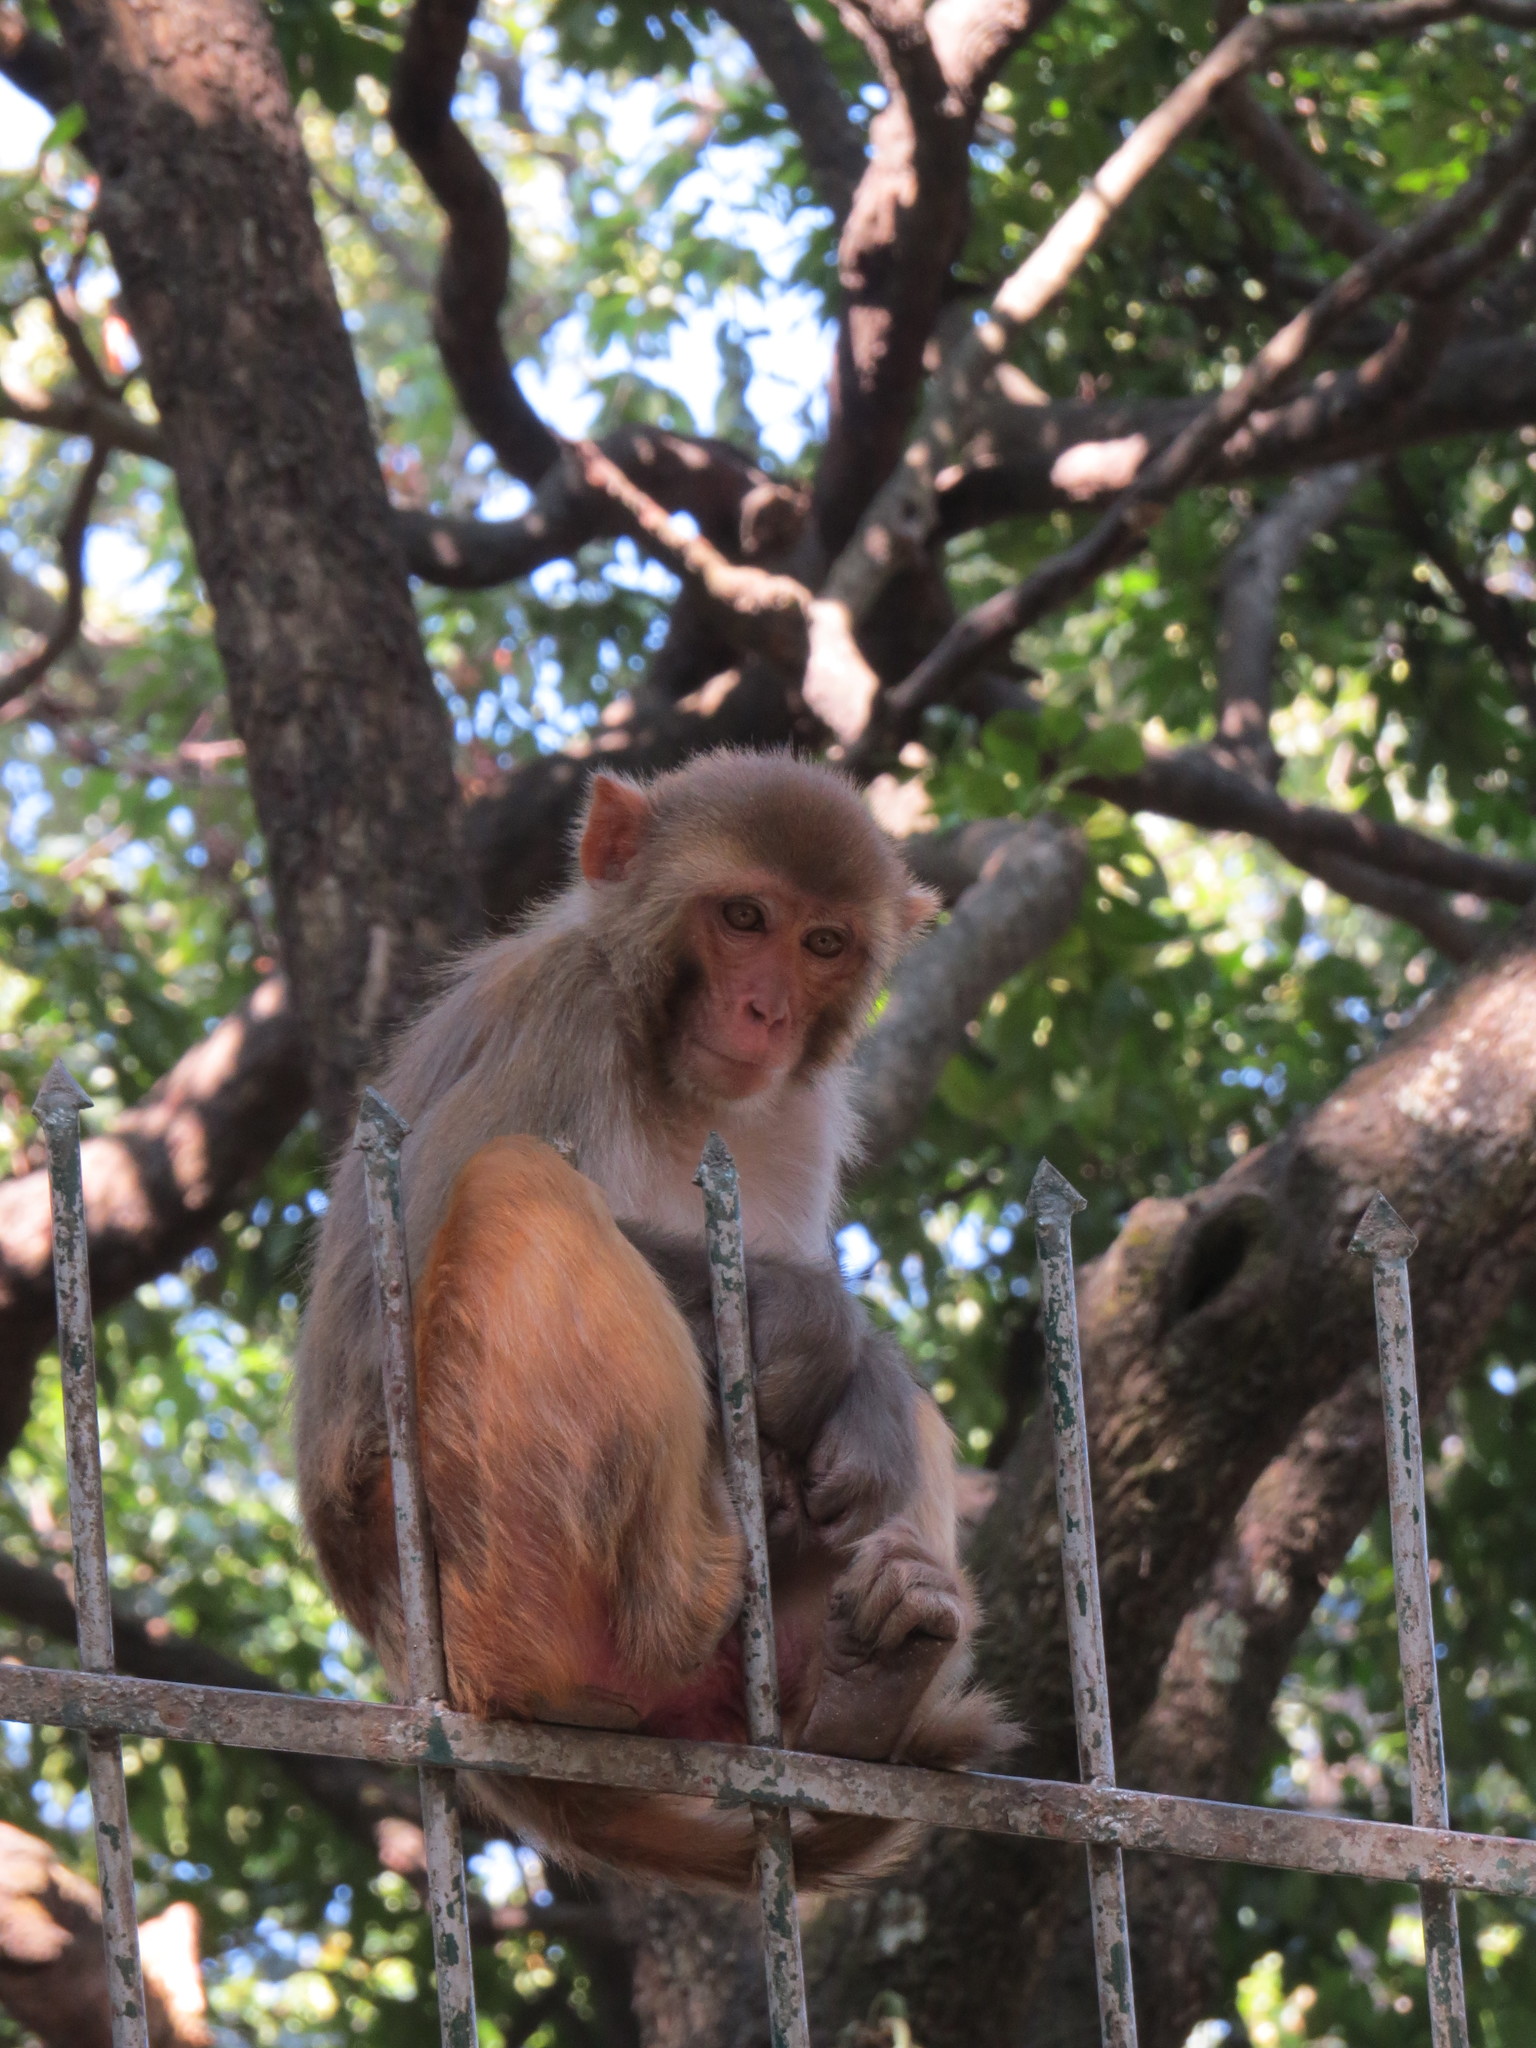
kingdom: Animalia
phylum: Chordata
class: Mammalia
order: Primates
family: Cercopithecidae
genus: Macaca
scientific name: Macaca mulatta
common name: Rhesus monkey
